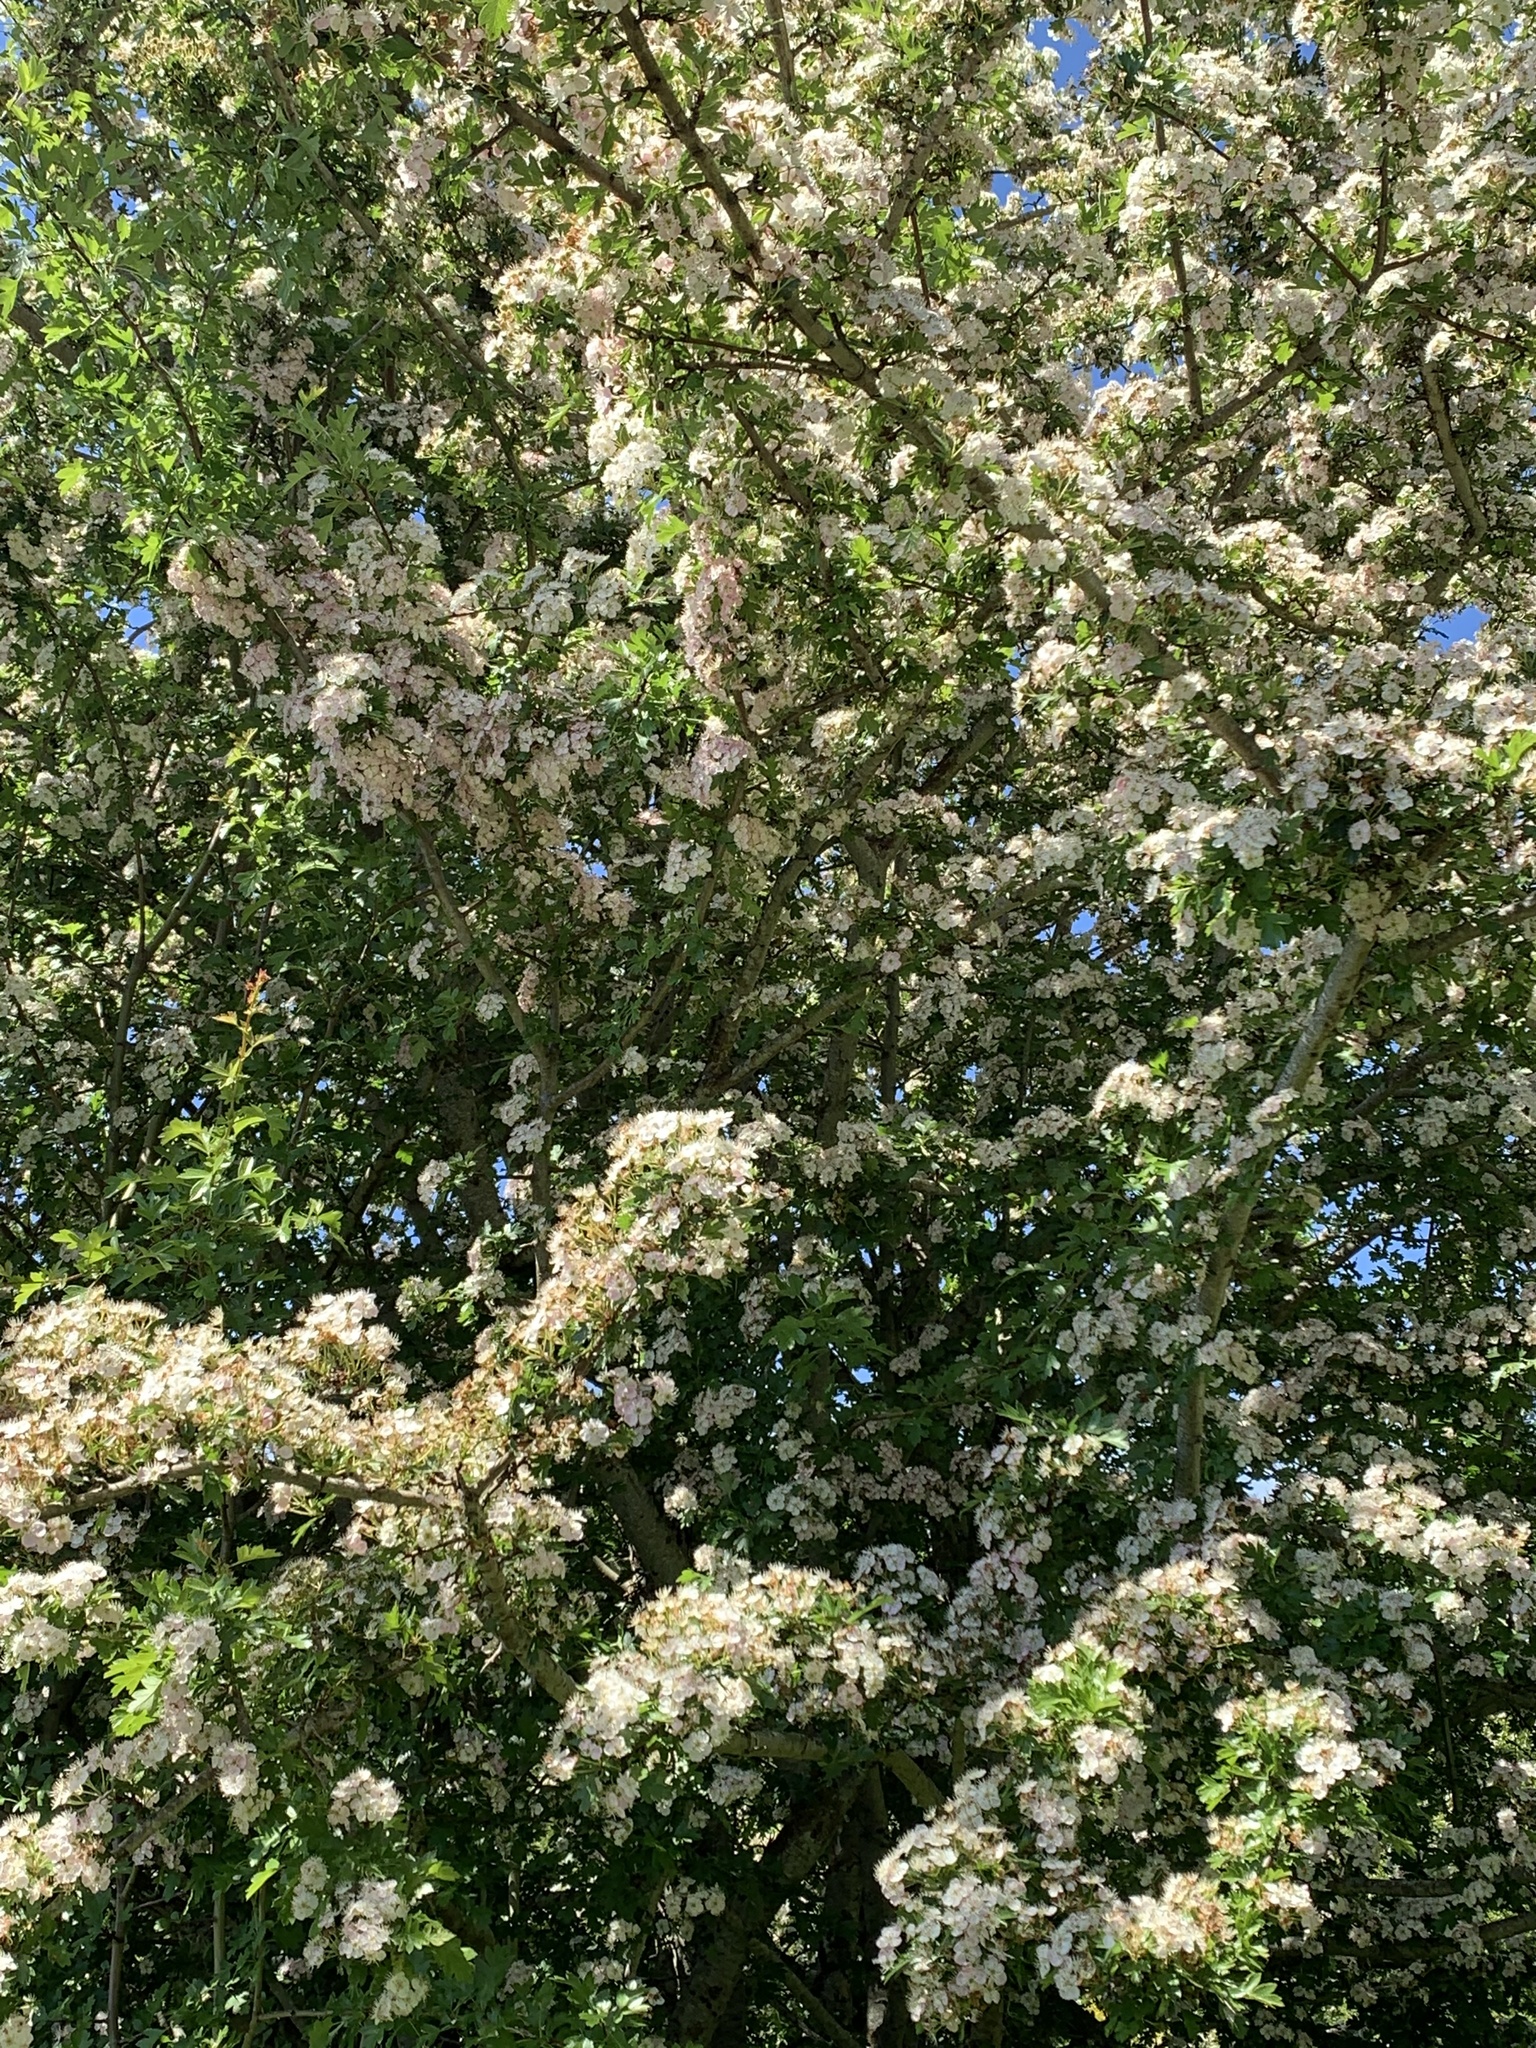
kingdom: Plantae
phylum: Tracheophyta
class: Magnoliopsida
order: Rosales
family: Rosaceae
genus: Crataegus
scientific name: Crataegus monogyna
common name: Hawthorn
